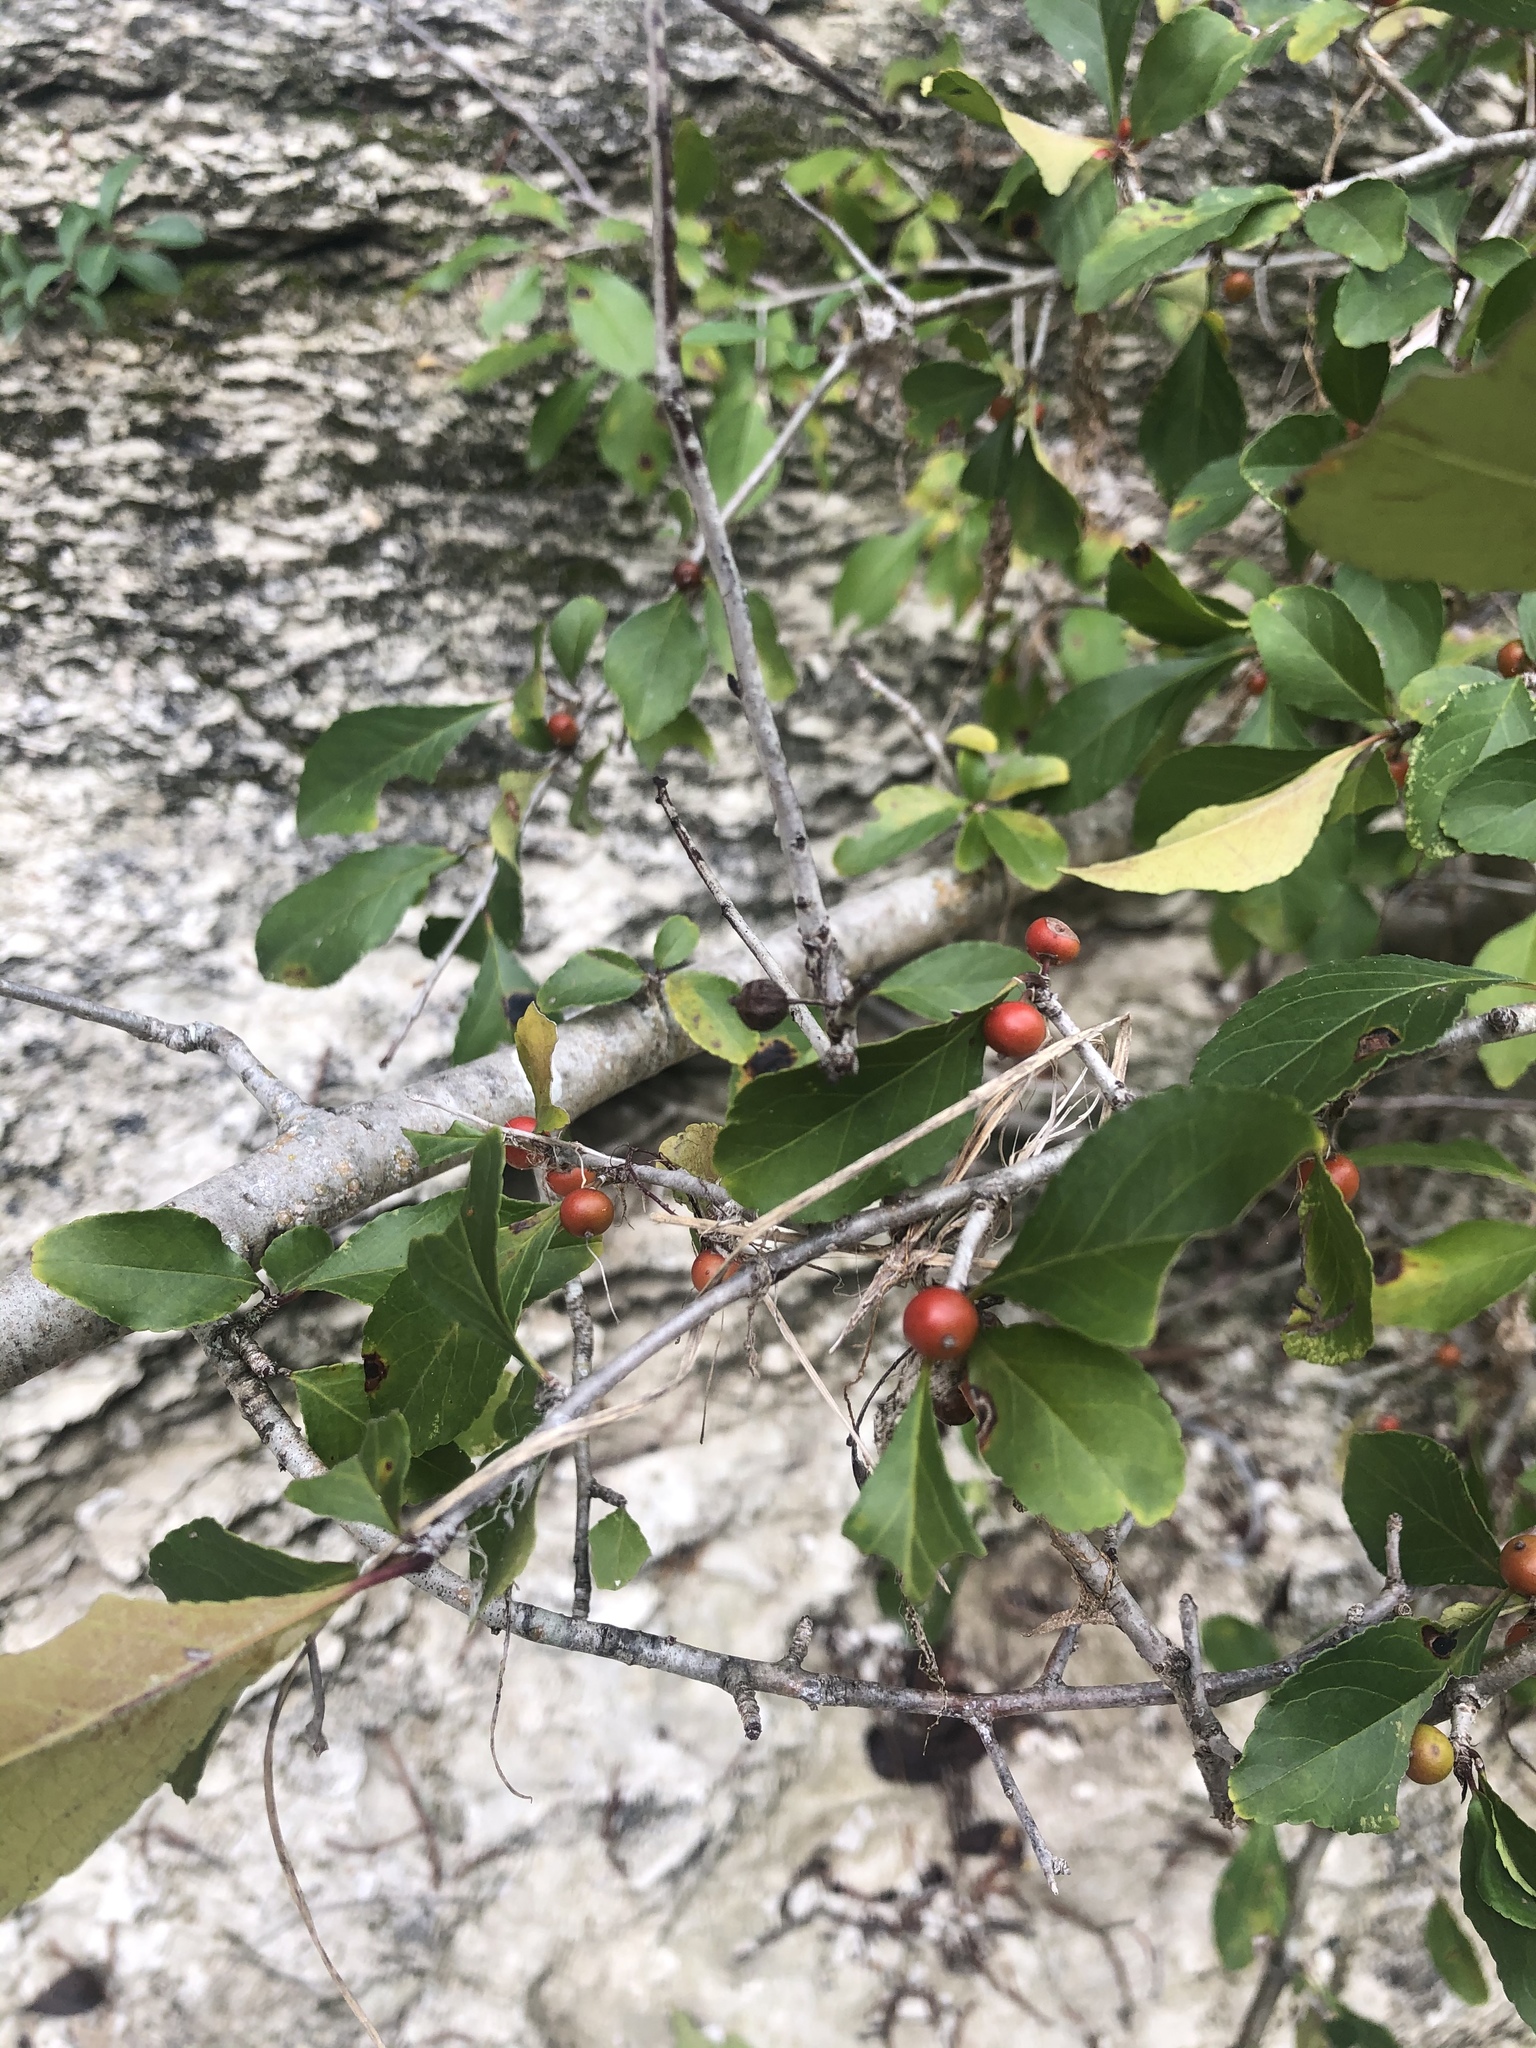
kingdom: Plantae
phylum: Tracheophyta
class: Magnoliopsida
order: Aquifoliales
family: Aquifoliaceae
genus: Ilex
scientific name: Ilex decidua
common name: Possum-haw
